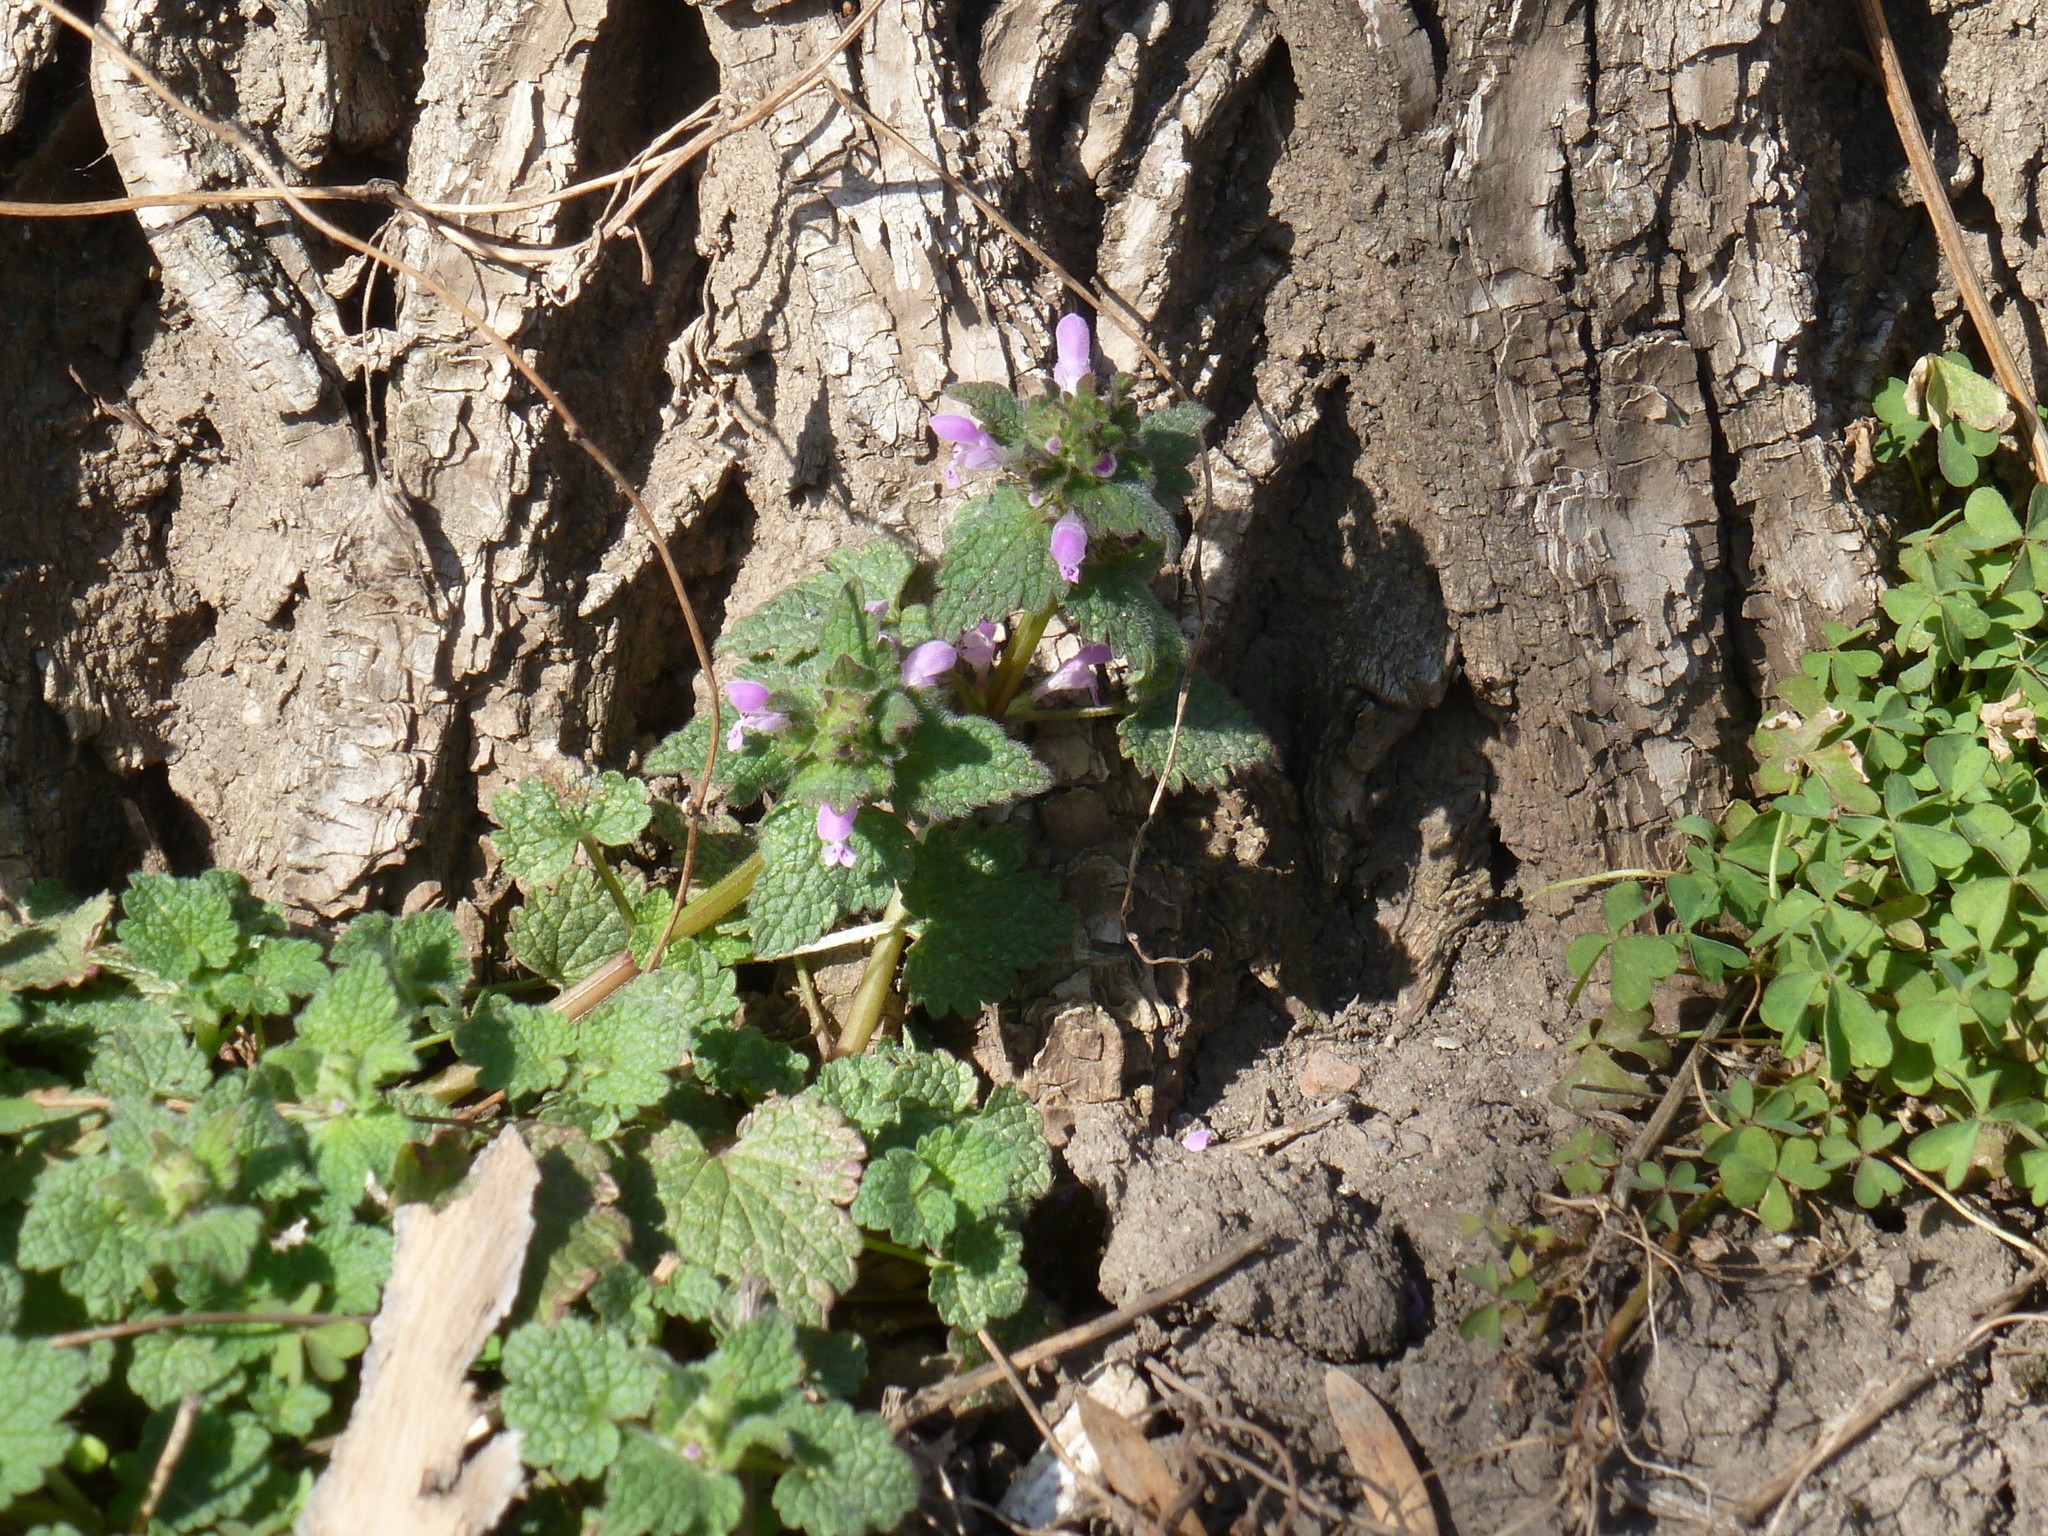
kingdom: Plantae
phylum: Tracheophyta
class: Magnoliopsida
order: Lamiales
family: Lamiaceae
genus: Lamium
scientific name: Lamium purpureum
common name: Red dead-nettle
